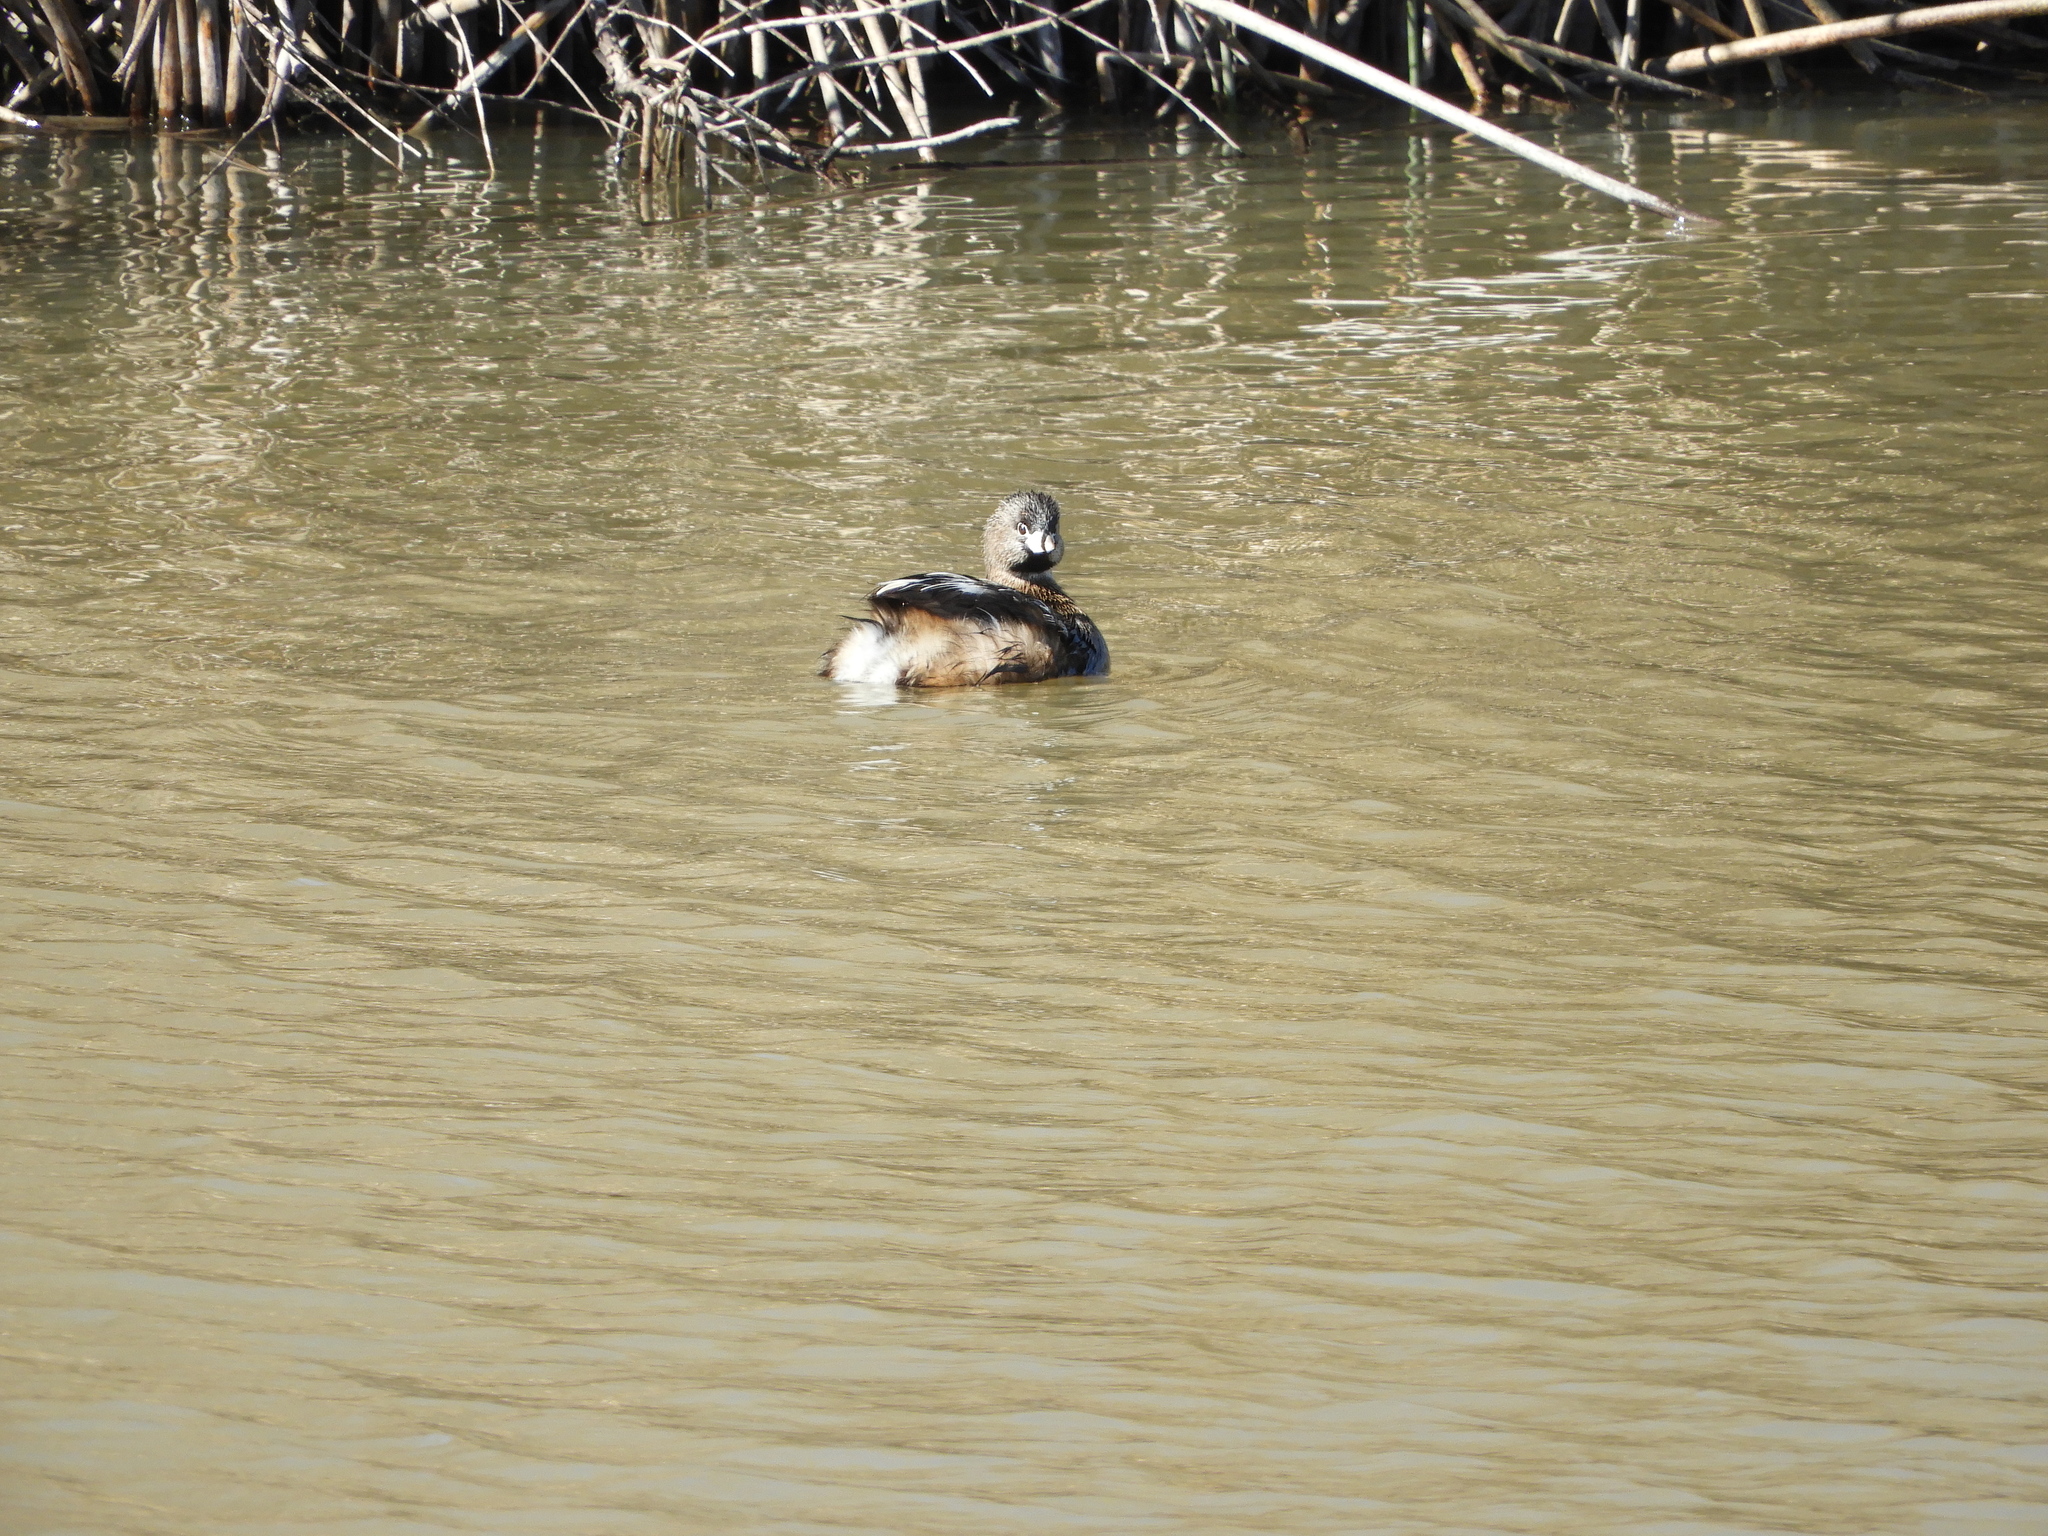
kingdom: Animalia
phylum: Chordata
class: Aves
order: Podicipediformes
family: Podicipedidae
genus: Podilymbus
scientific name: Podilymbus podiceps
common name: Pied-billed grebe
